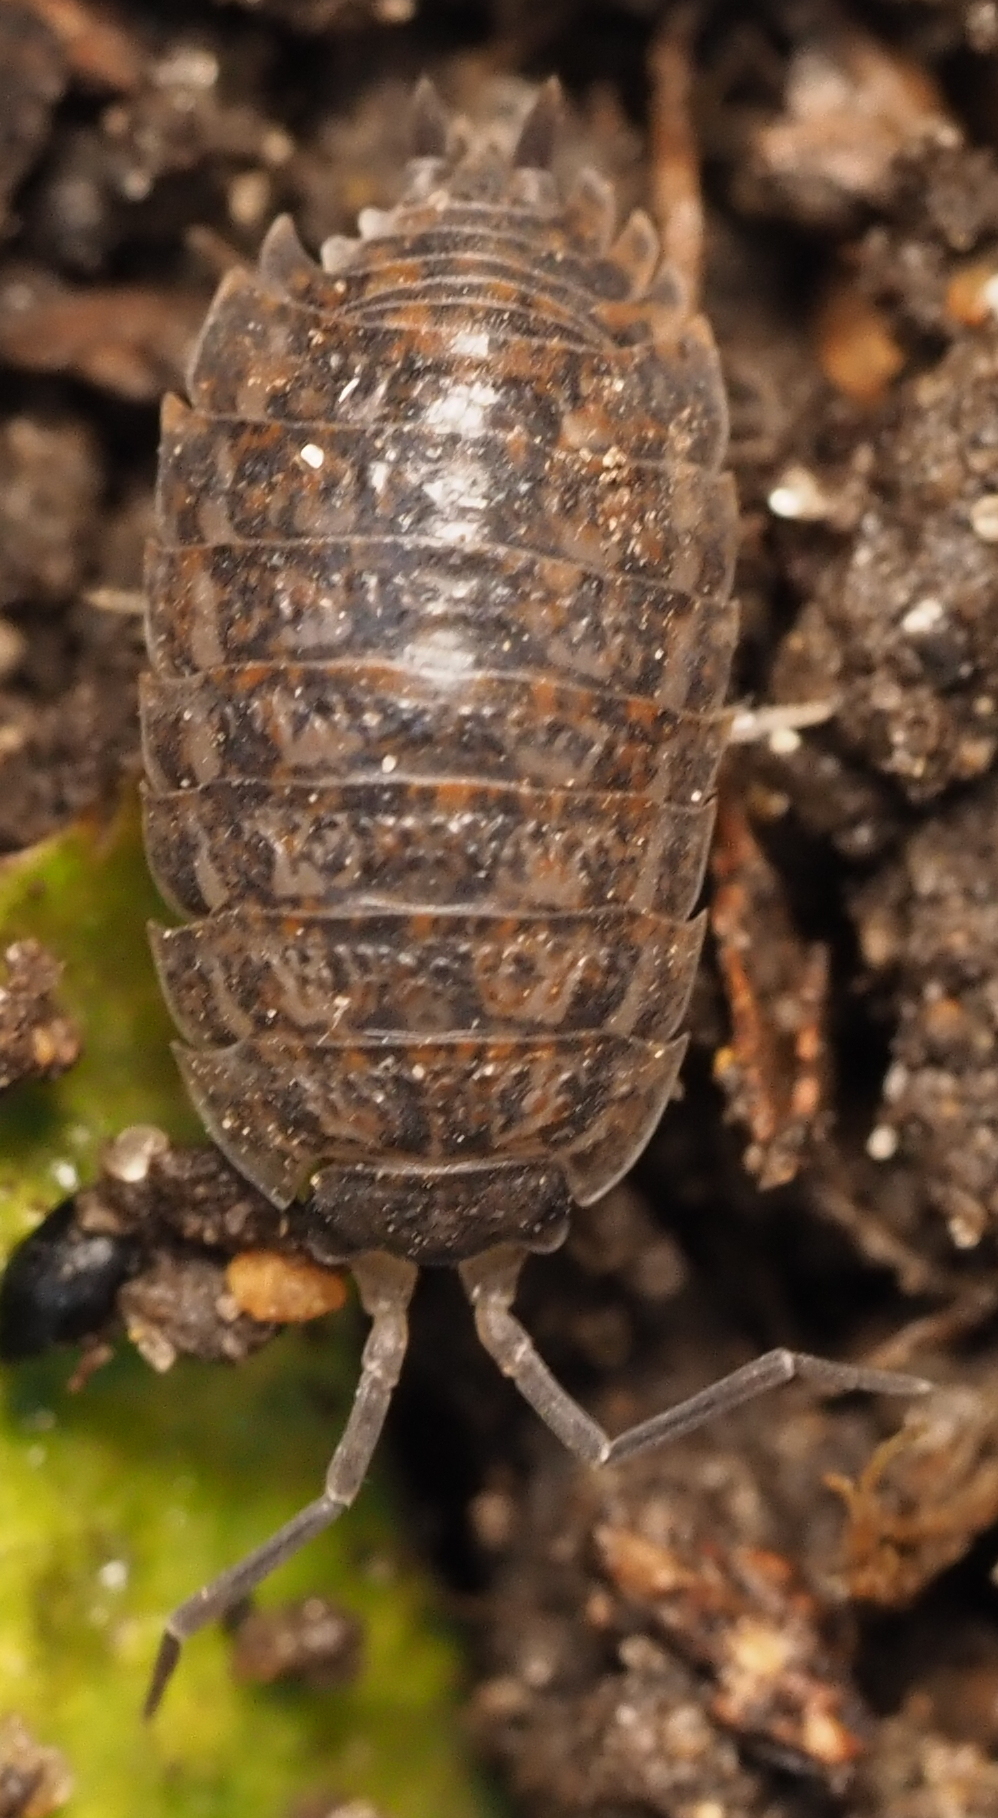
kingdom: Animalia
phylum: Arthropoda
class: Malacostraca
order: Isopoda
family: Trachelipodidae
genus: Trachelipus
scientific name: Trachelipus rathkii
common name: Isopod
